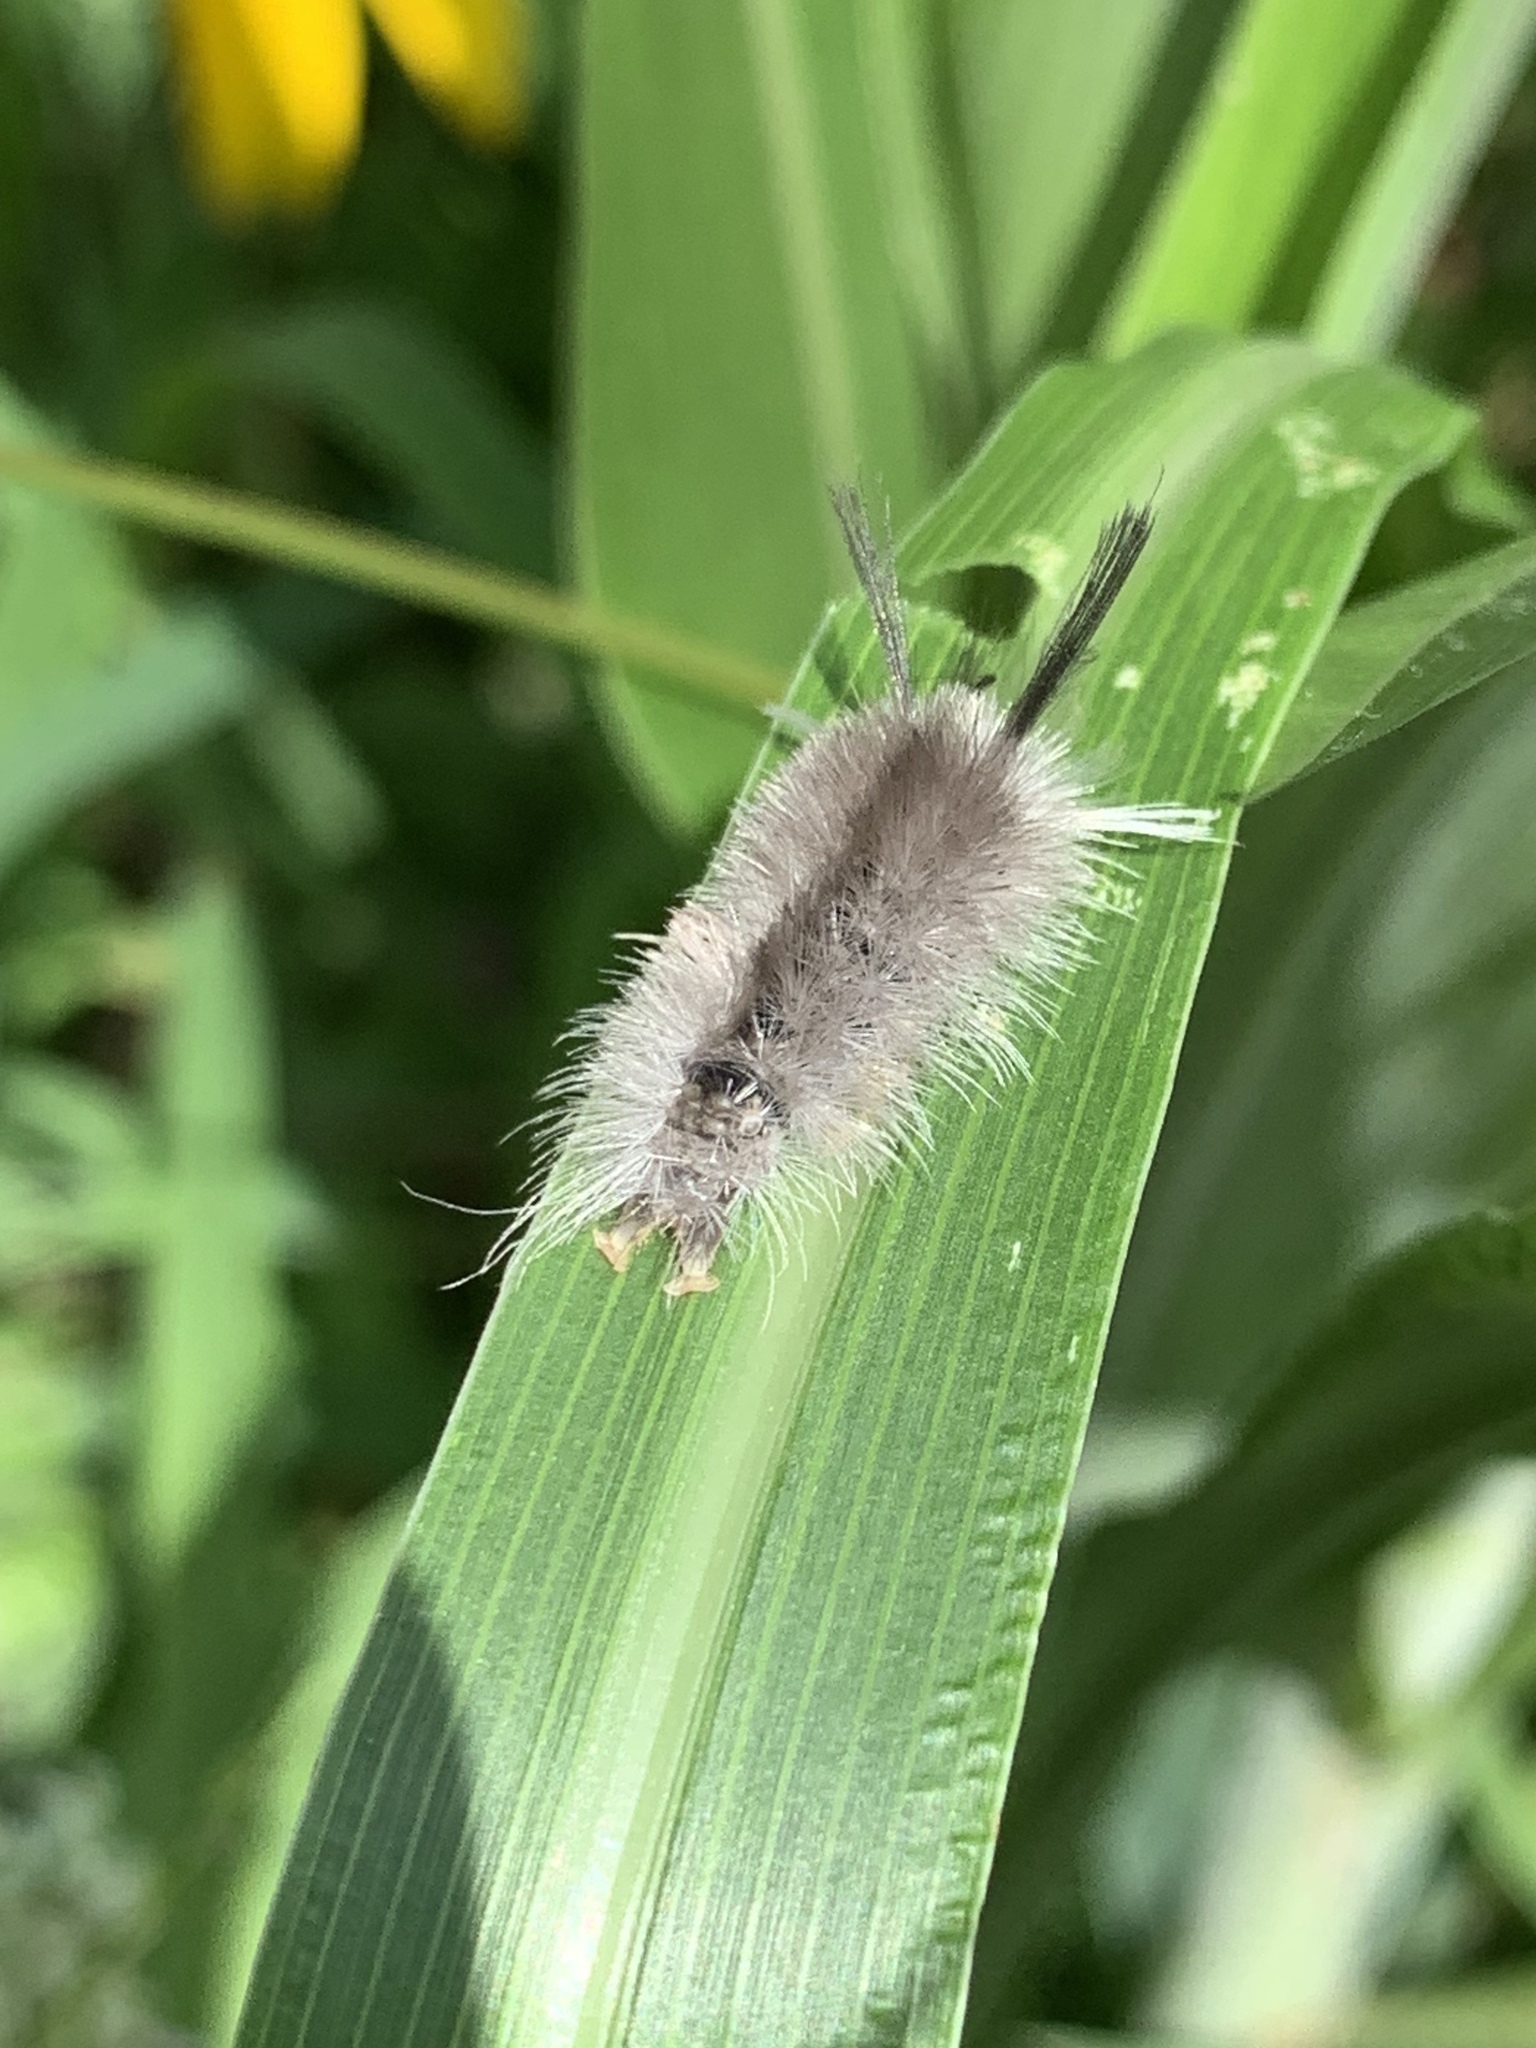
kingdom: Animalia
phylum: Arthropoda
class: Insecta
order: Lepidoptera
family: Erebidae
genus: Halysidota
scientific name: Halysidota tessellaris
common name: Banded tussock moth
